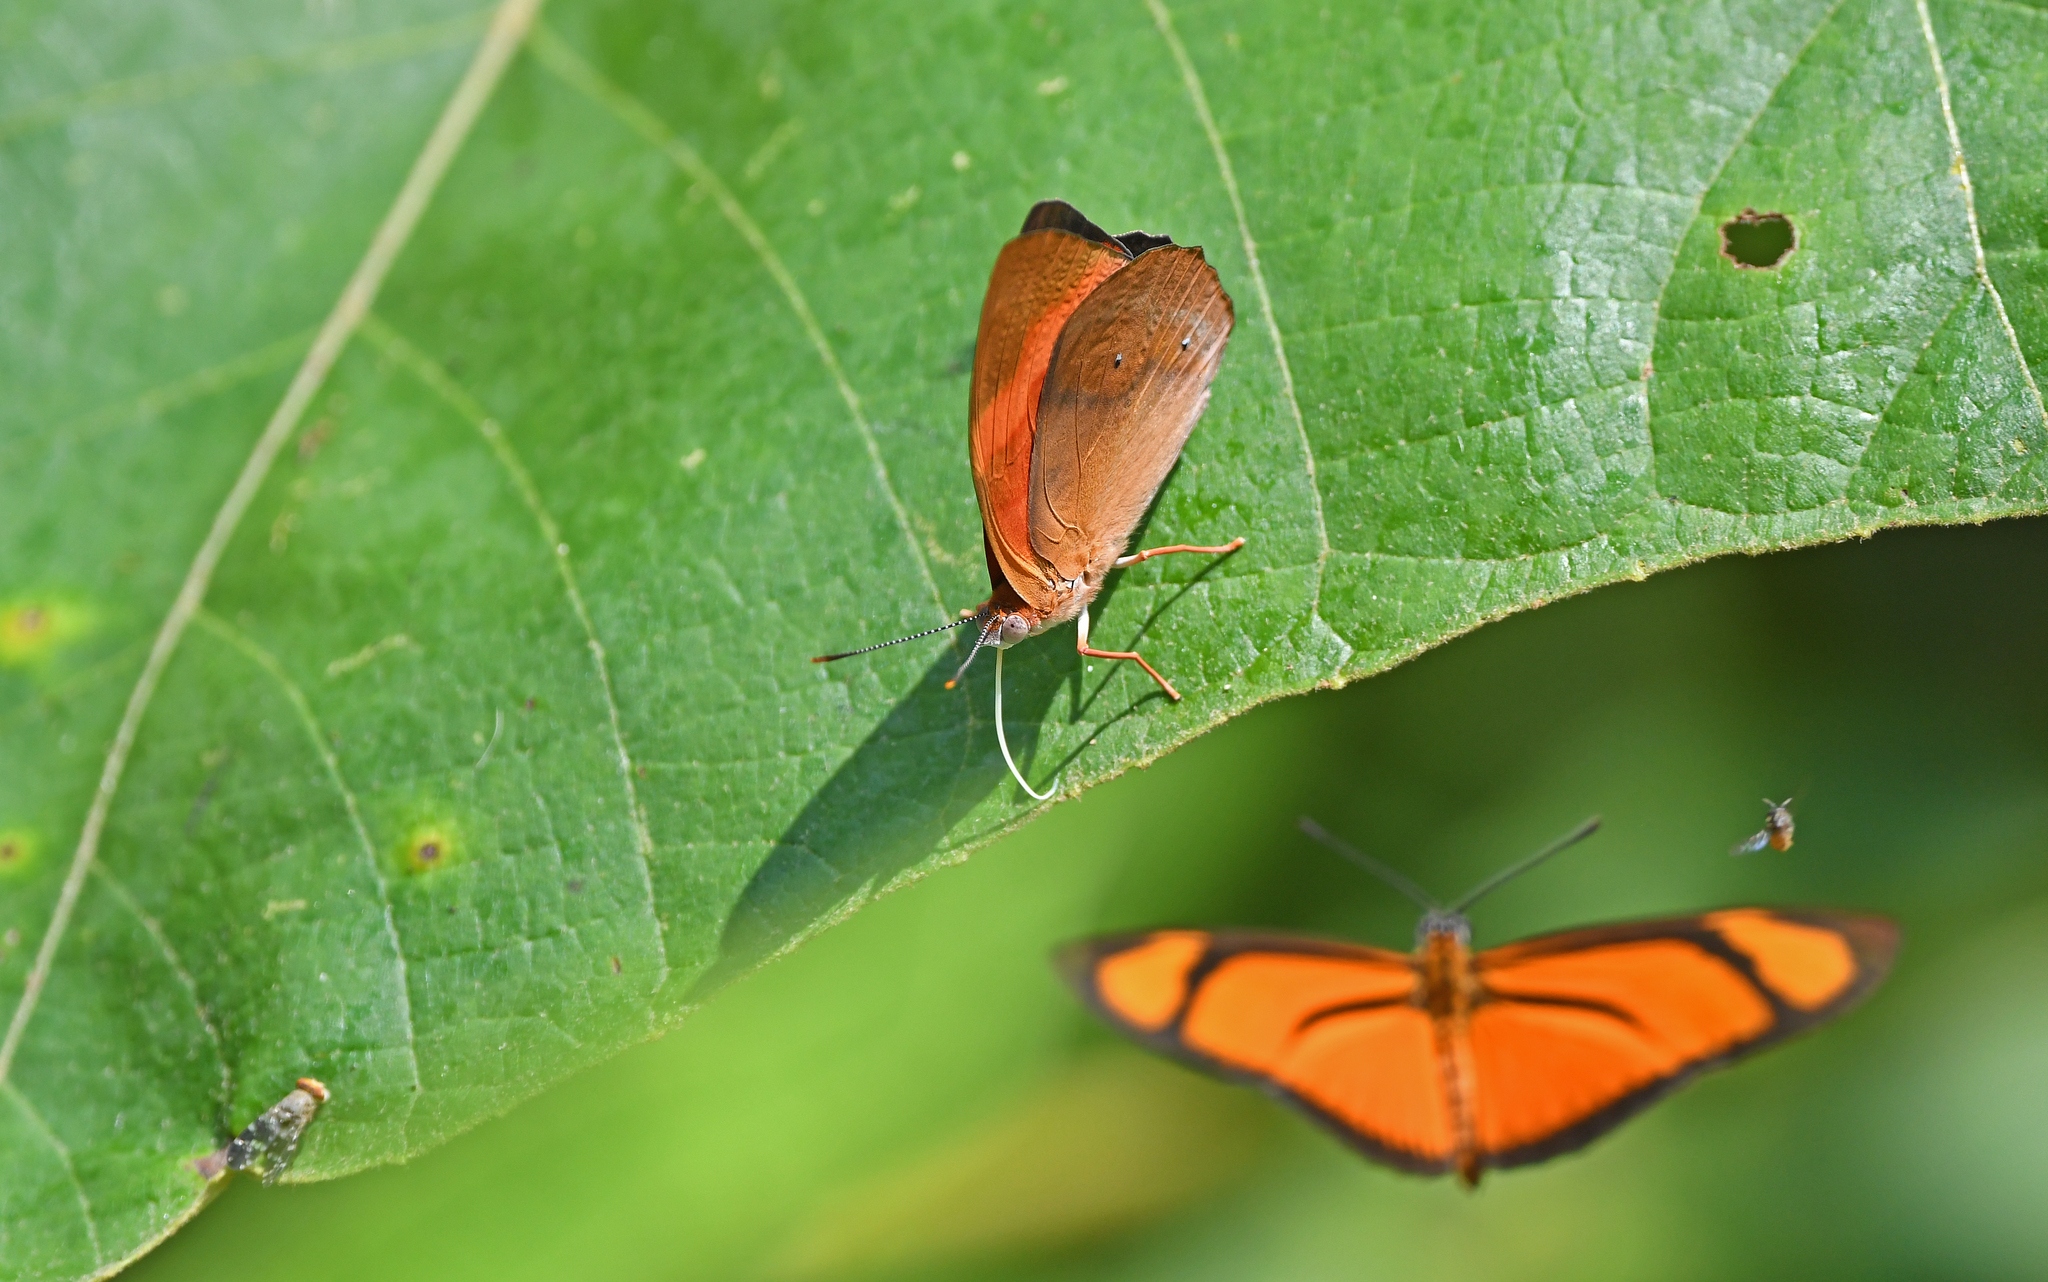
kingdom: Animalia
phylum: Arthropoda
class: Insecta
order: Lepidoptera
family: Nymphalidae
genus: Temenis
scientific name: Temenis pulchra
